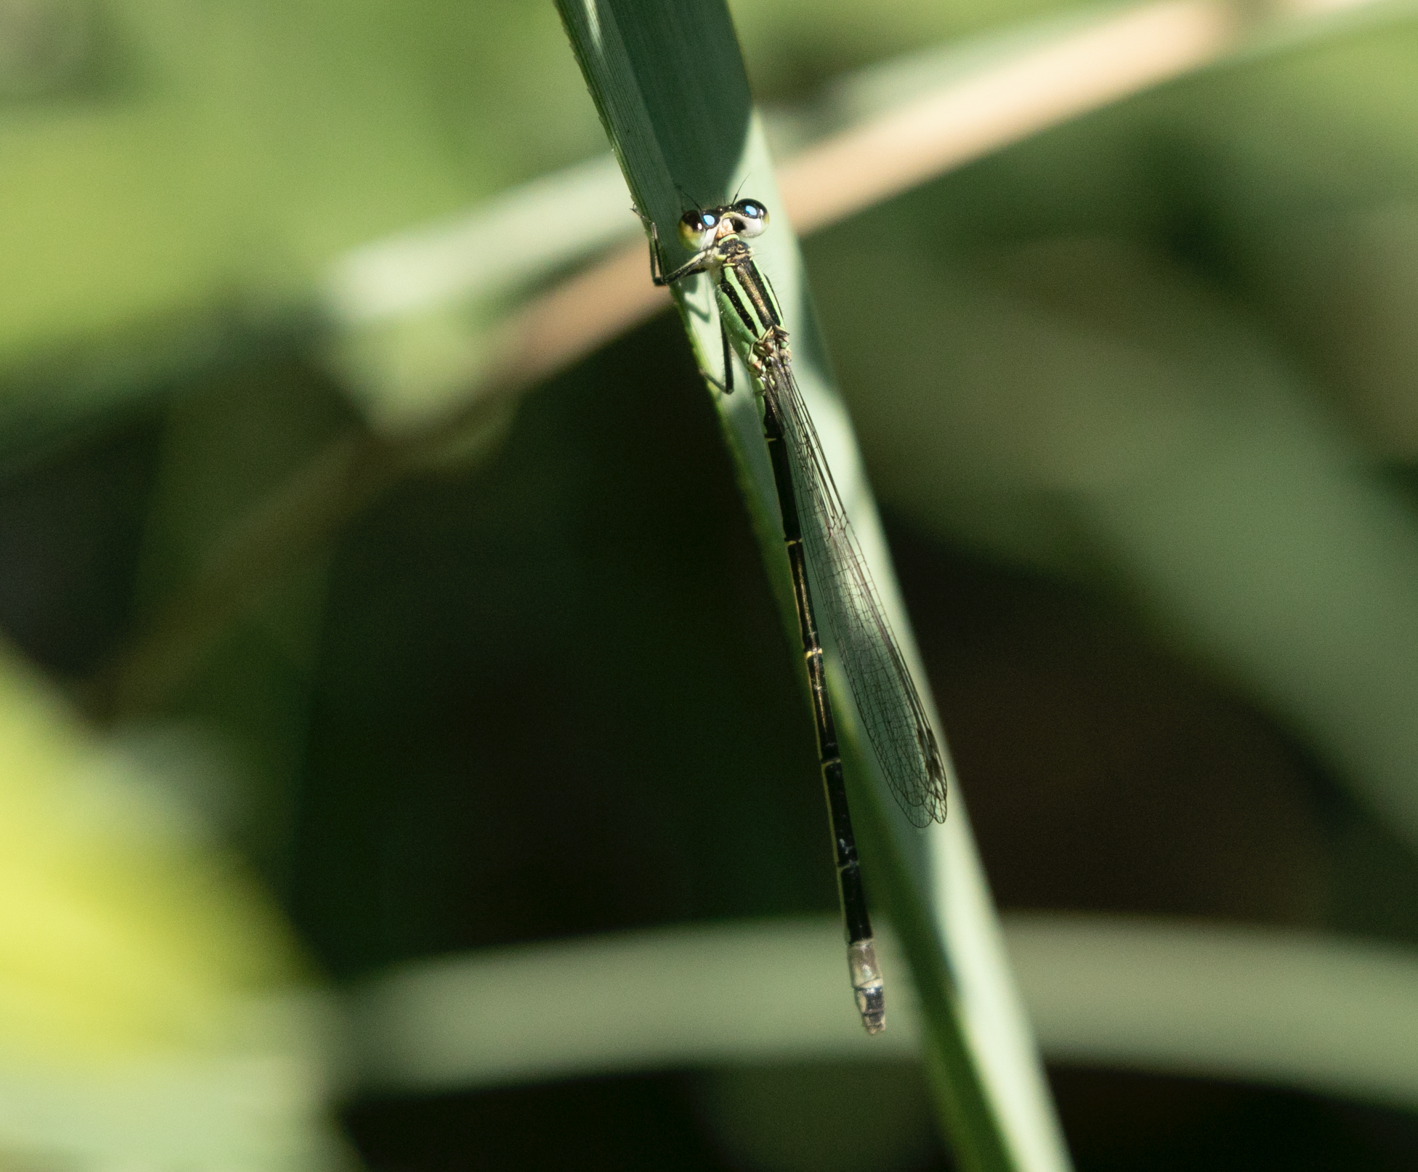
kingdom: Animalia
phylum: Arthropoda
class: Insecta
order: Odonata
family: Coenagrionidae
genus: Ischnura
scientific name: Ischnura elegans
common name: Blue-tailed damselfly
